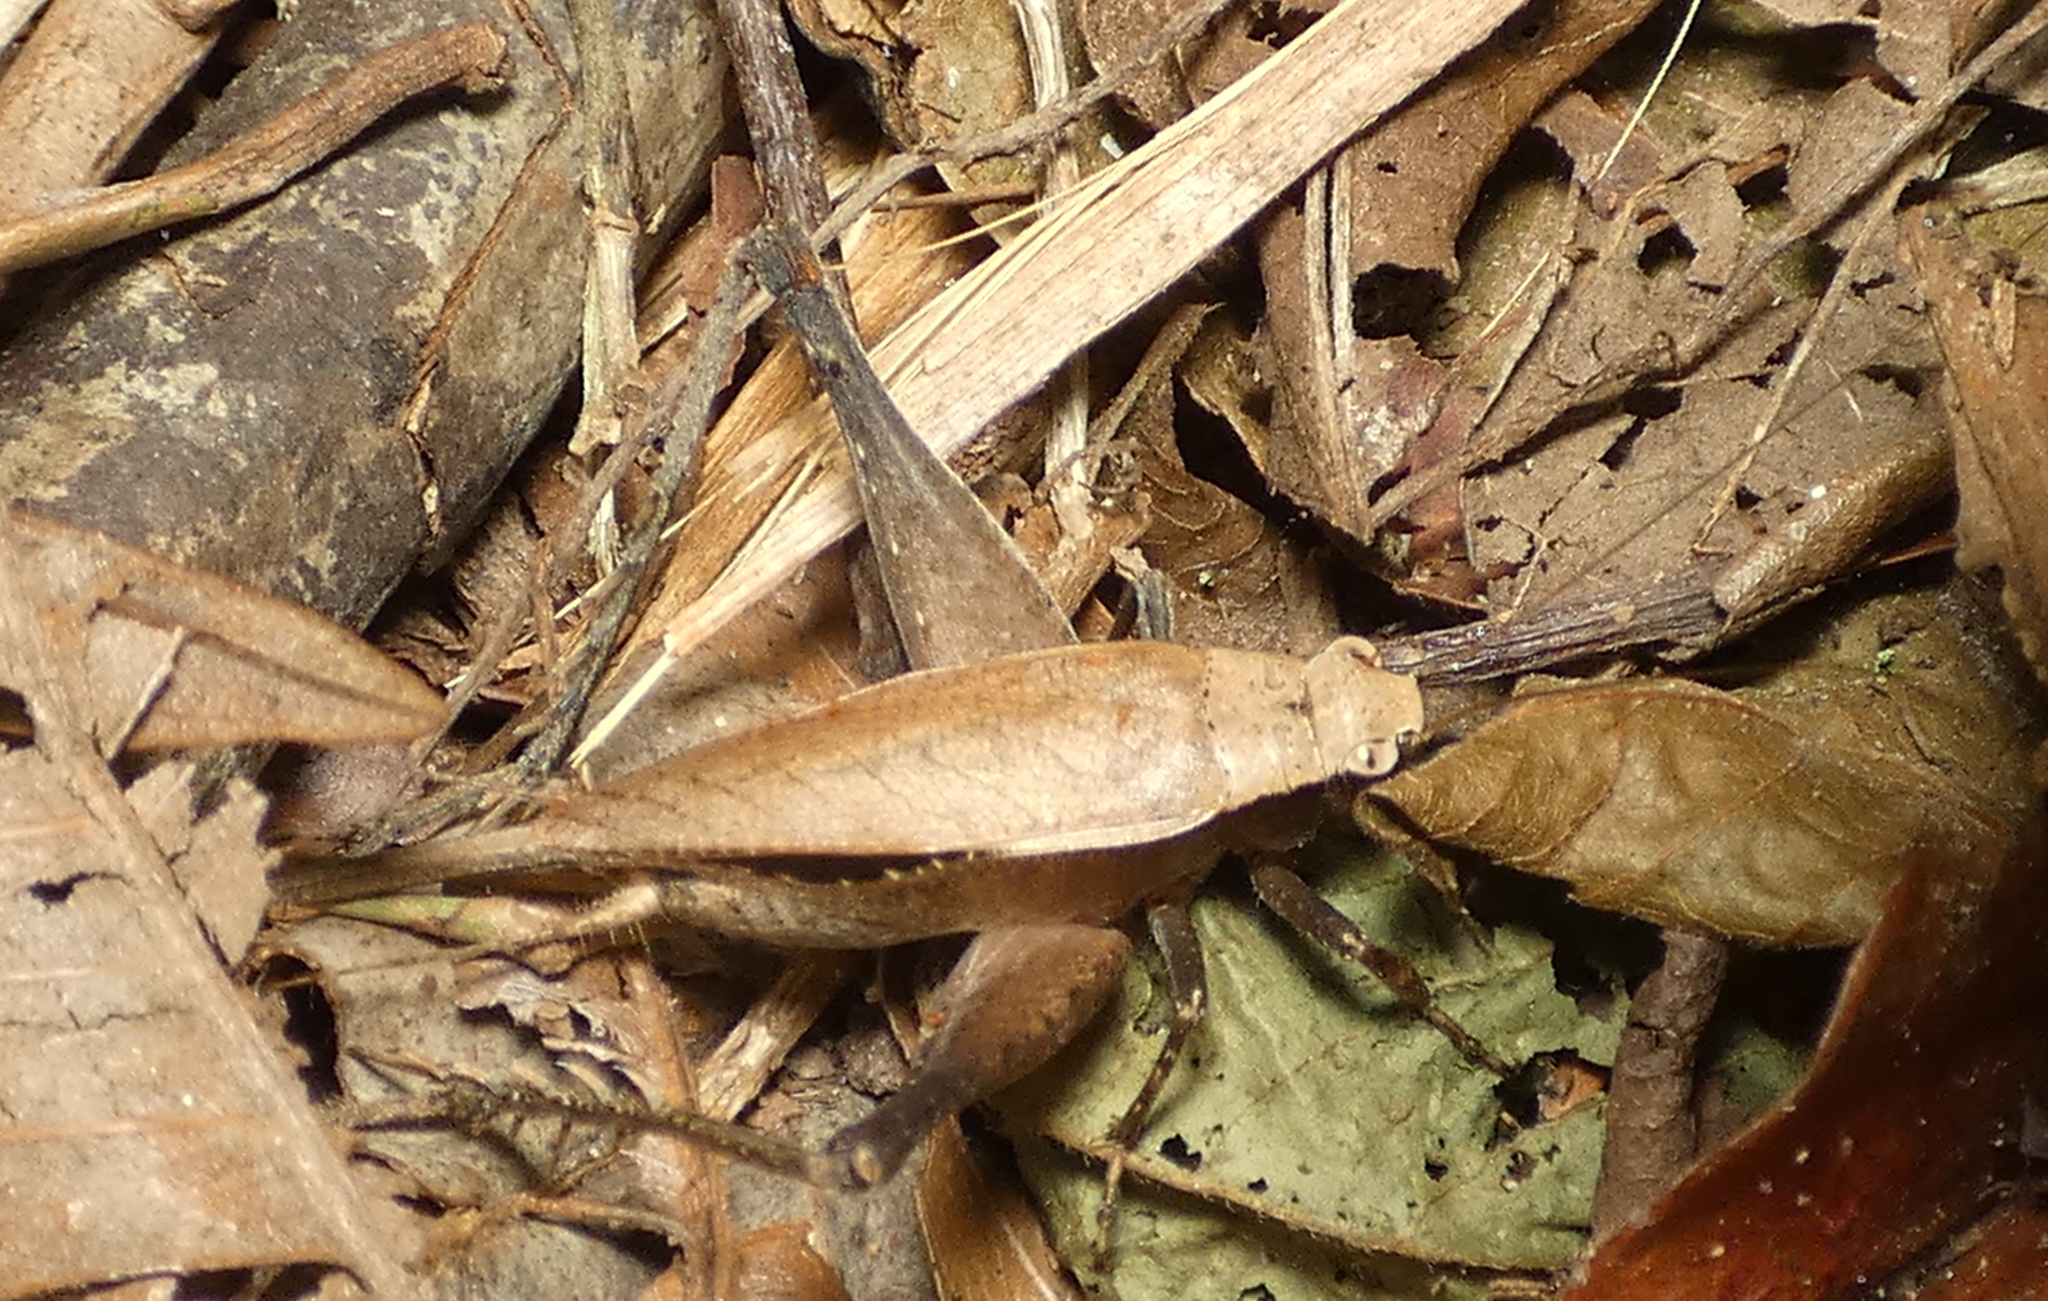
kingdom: Animalia
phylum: Arthropoda
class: Insecta
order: Orthoptera
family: Gryllidae
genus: Eneoptera
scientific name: Eneoptera surinamensis
